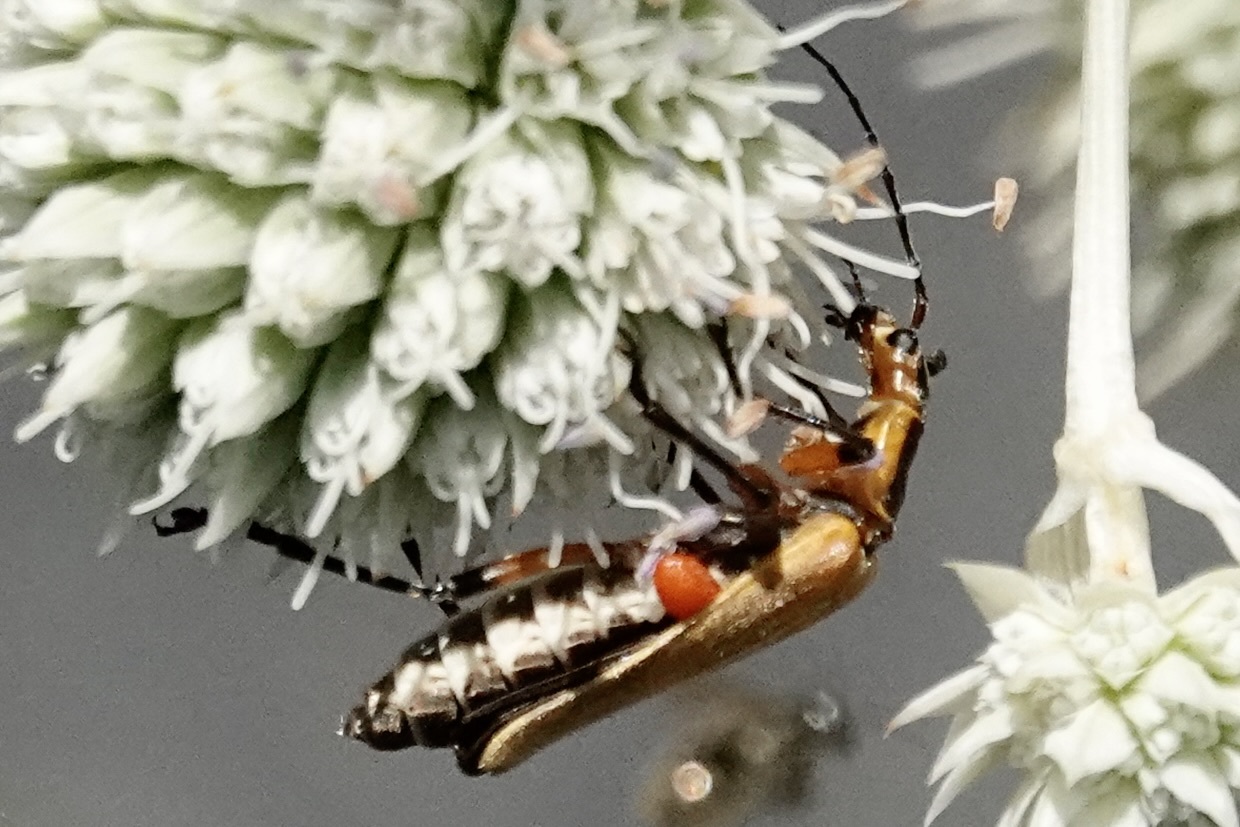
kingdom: Animalia
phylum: Arthropoda
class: Insecta
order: Coleoptera
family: Cantharidae
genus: Chauliognathus
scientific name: Chauliognathus marginatus
